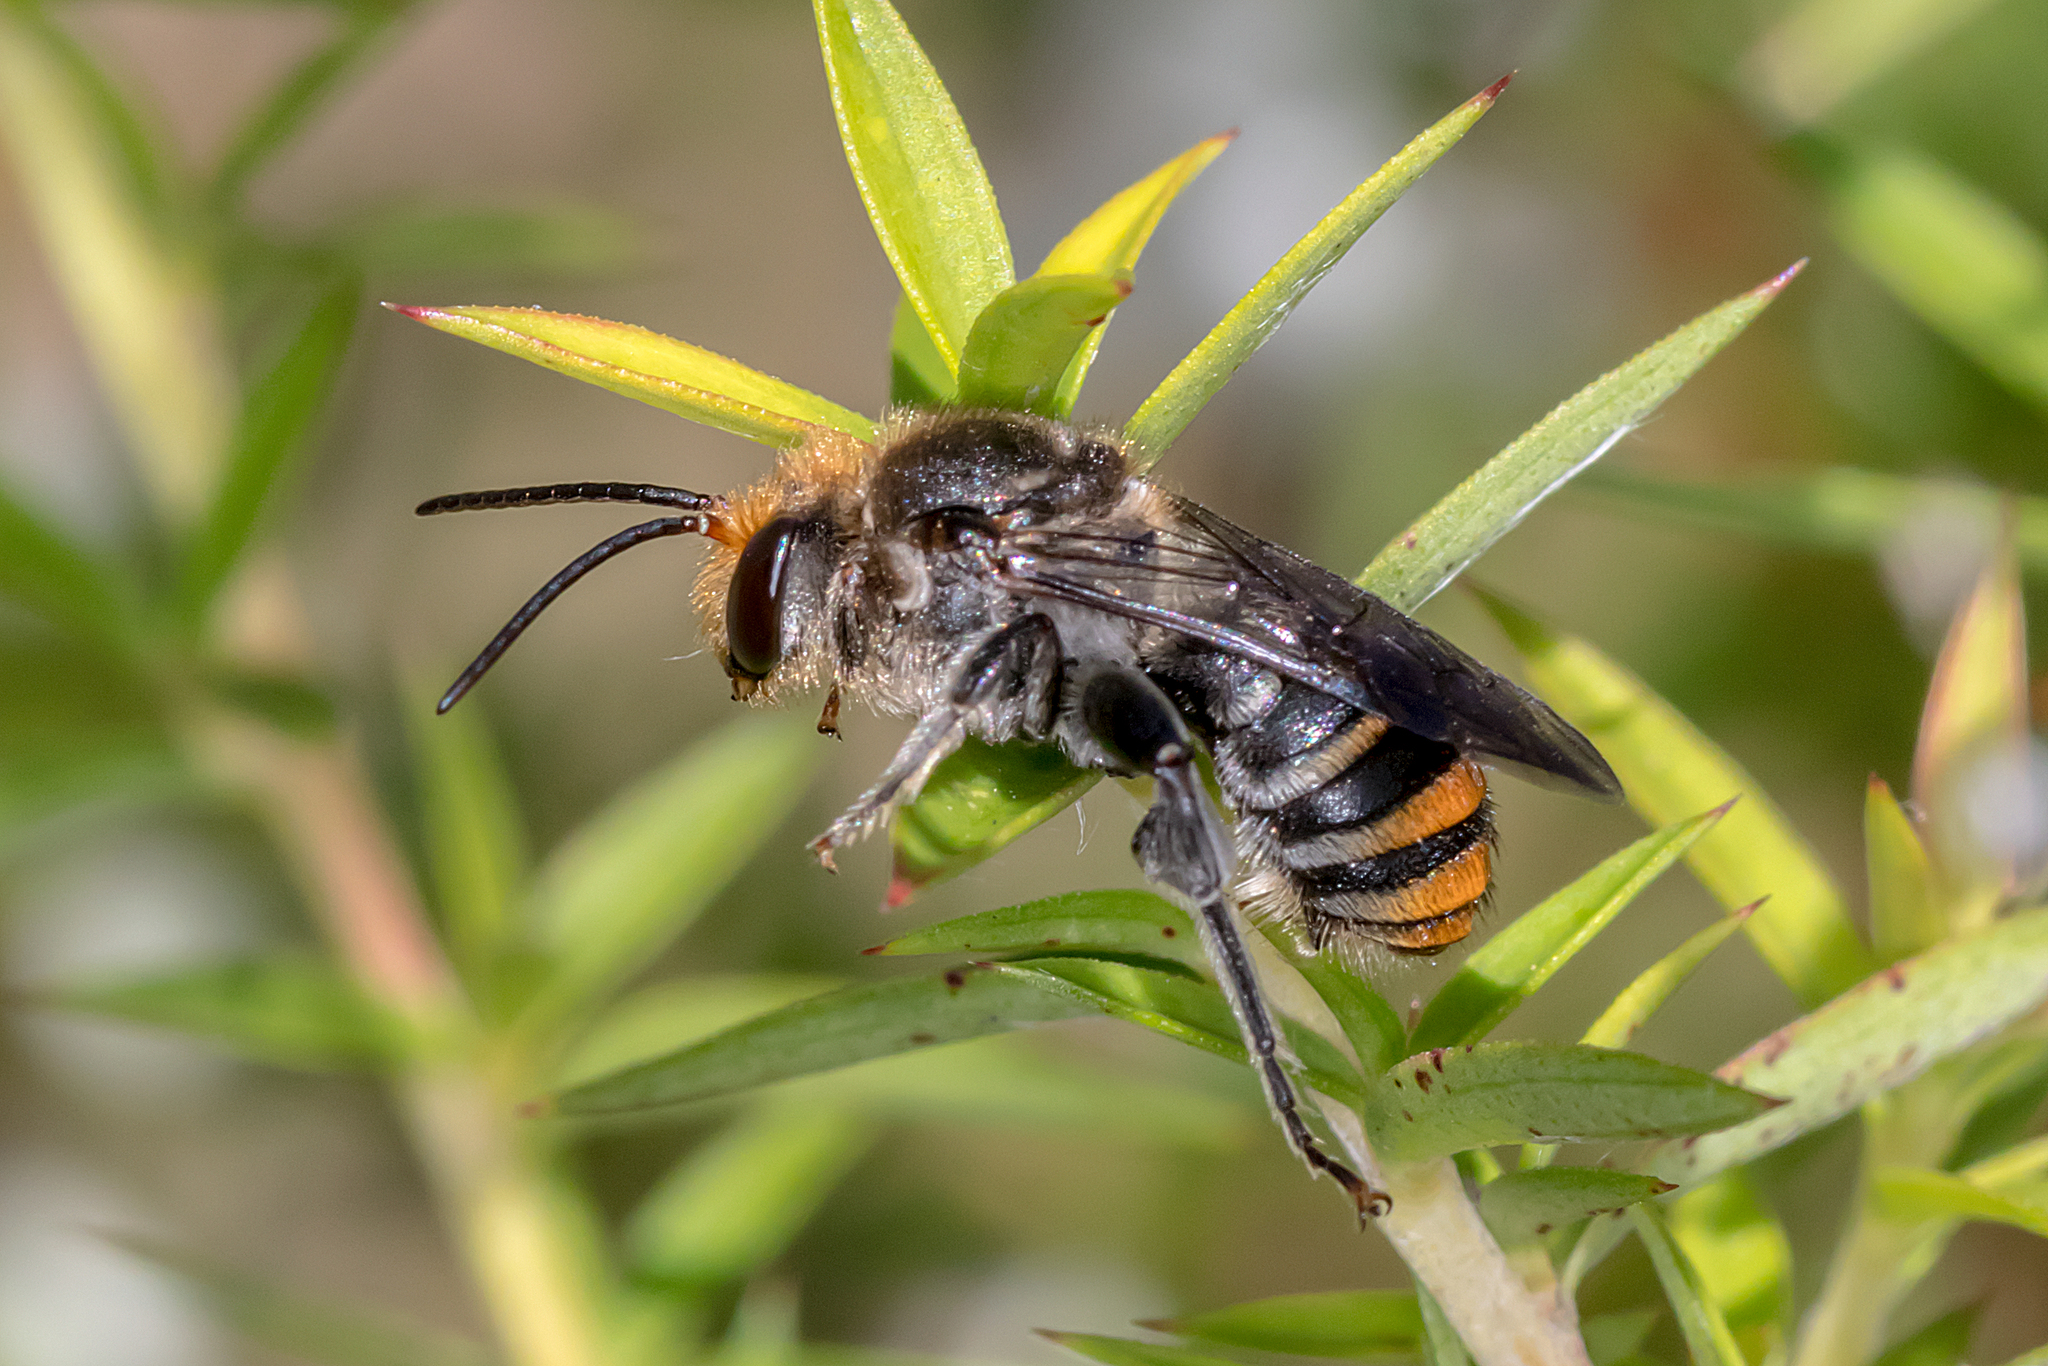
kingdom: Animalia
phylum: Arthropoda
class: Insecta
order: Hymenoptera
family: Halictidae
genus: Lipotriches
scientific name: Lipotriches australica
